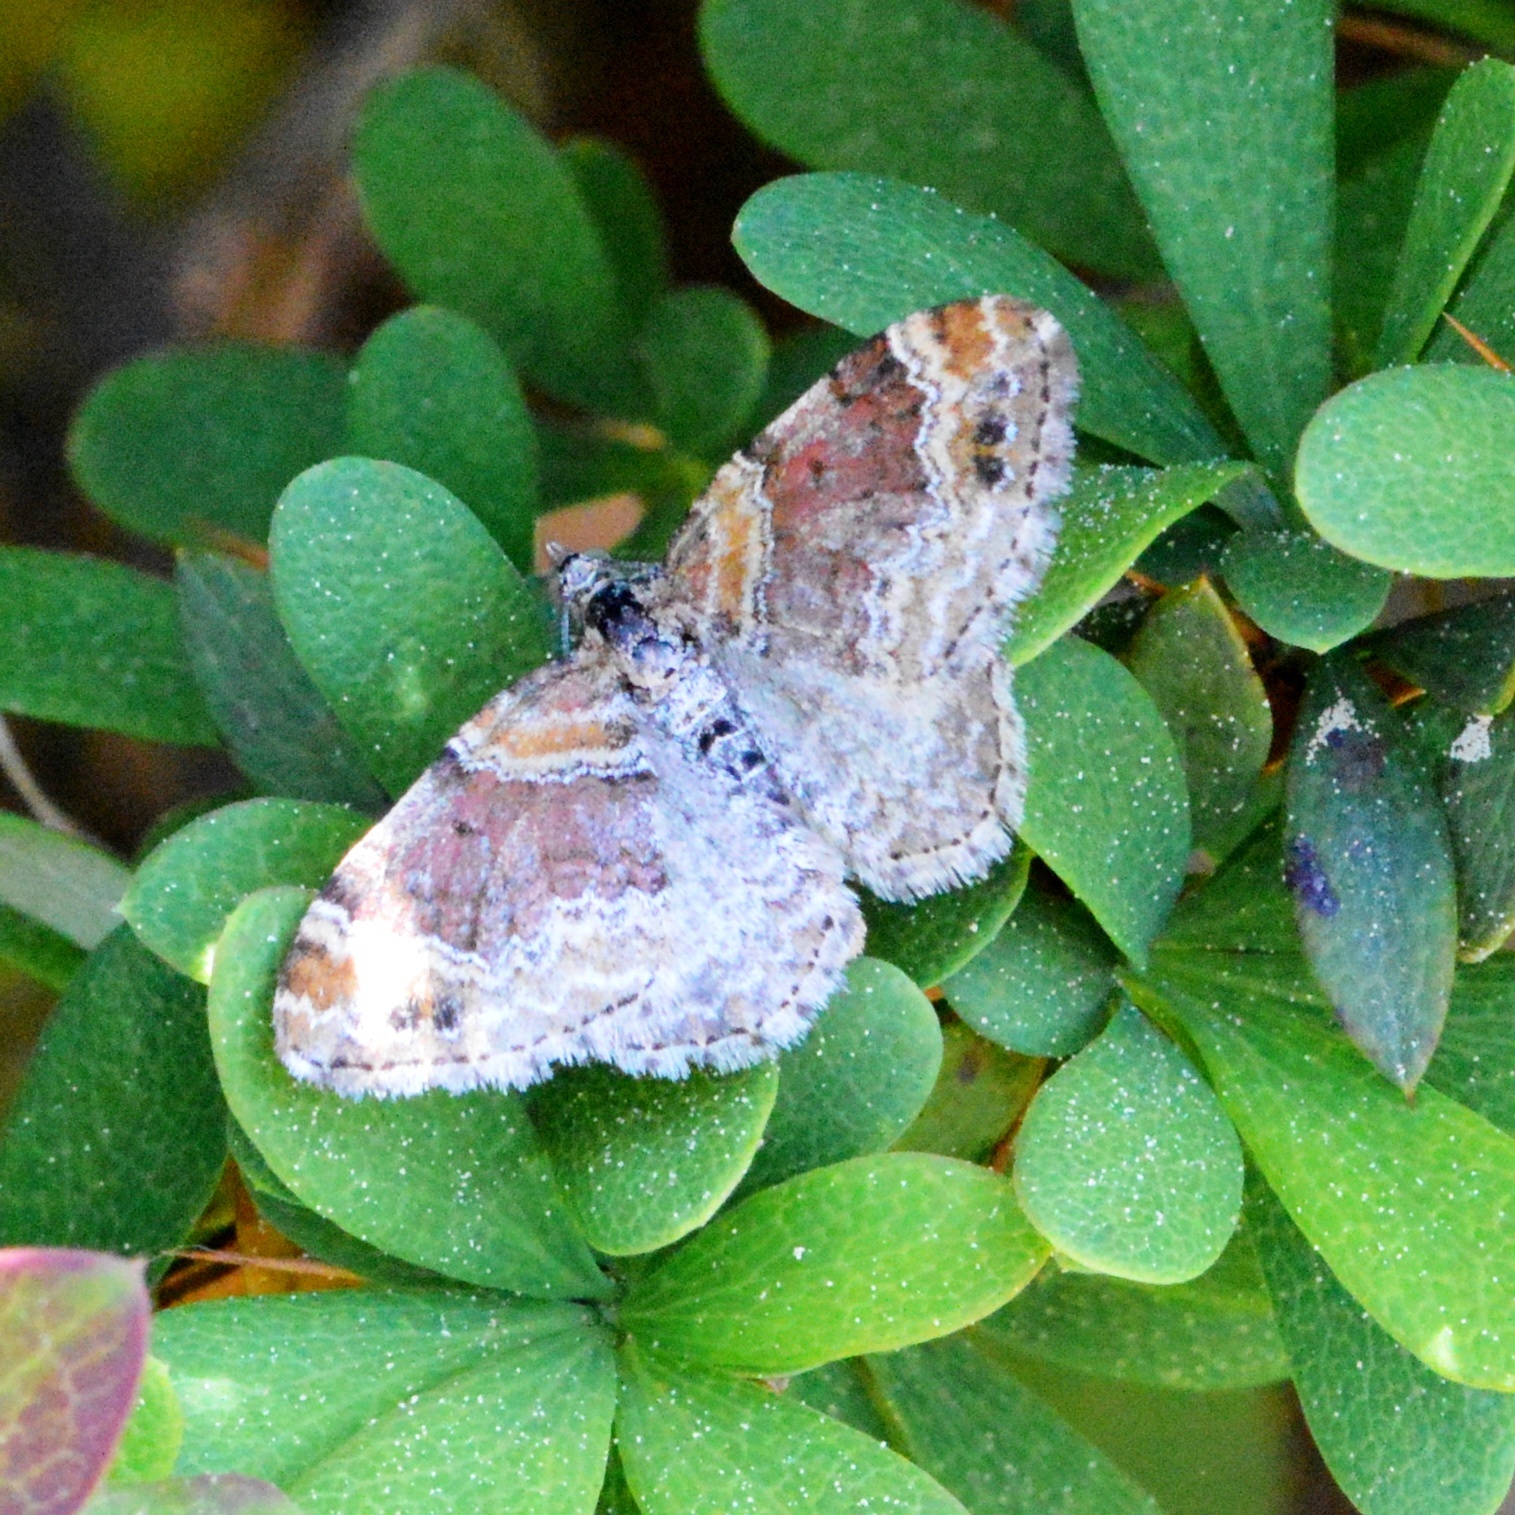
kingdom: Animalia
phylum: Arthropoda
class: Insecta
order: Lepidoptera
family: Geometridae
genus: Xanthorhoe
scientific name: Xanthorhoe spadicearia
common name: Red twin-spot carpet
